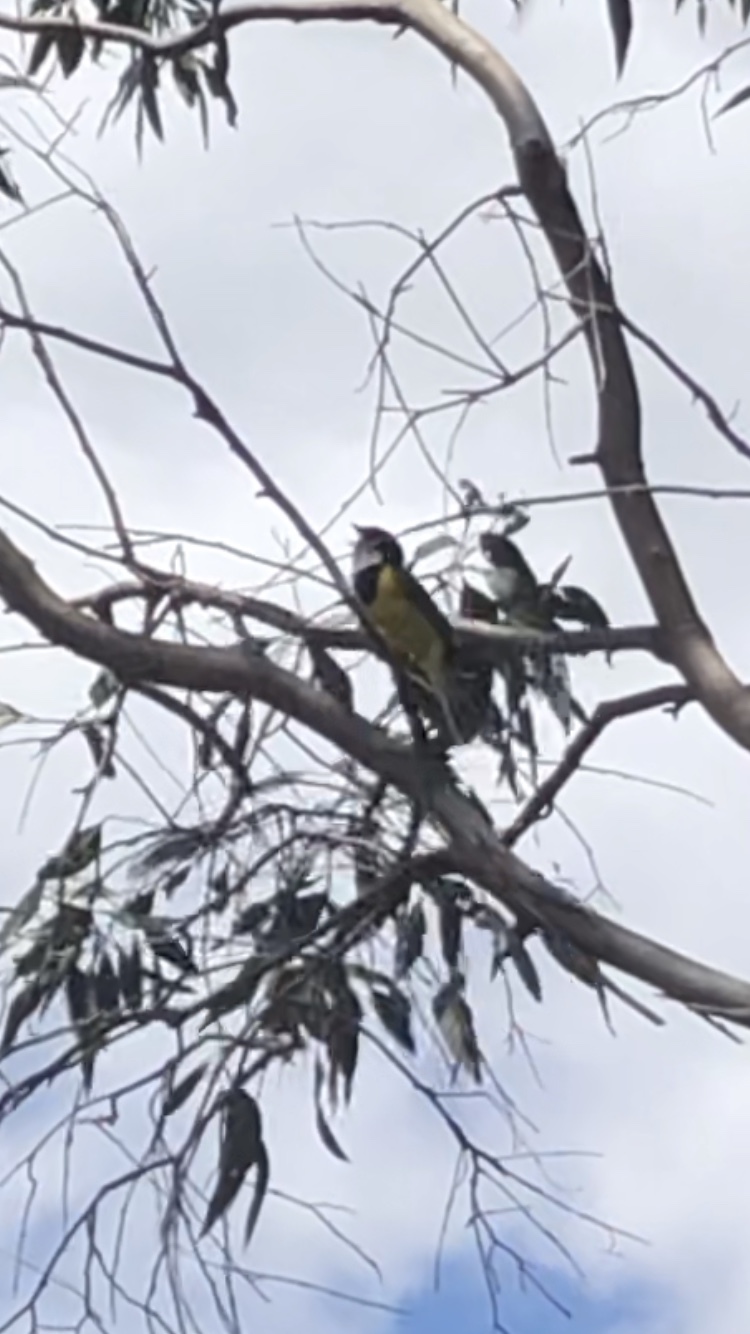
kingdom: Animalia
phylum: Chordata
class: Aves
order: Passeriformes
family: Pachycephalidae
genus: Pachycephala
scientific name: Pachycephala fuliginosa
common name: Western whistler
